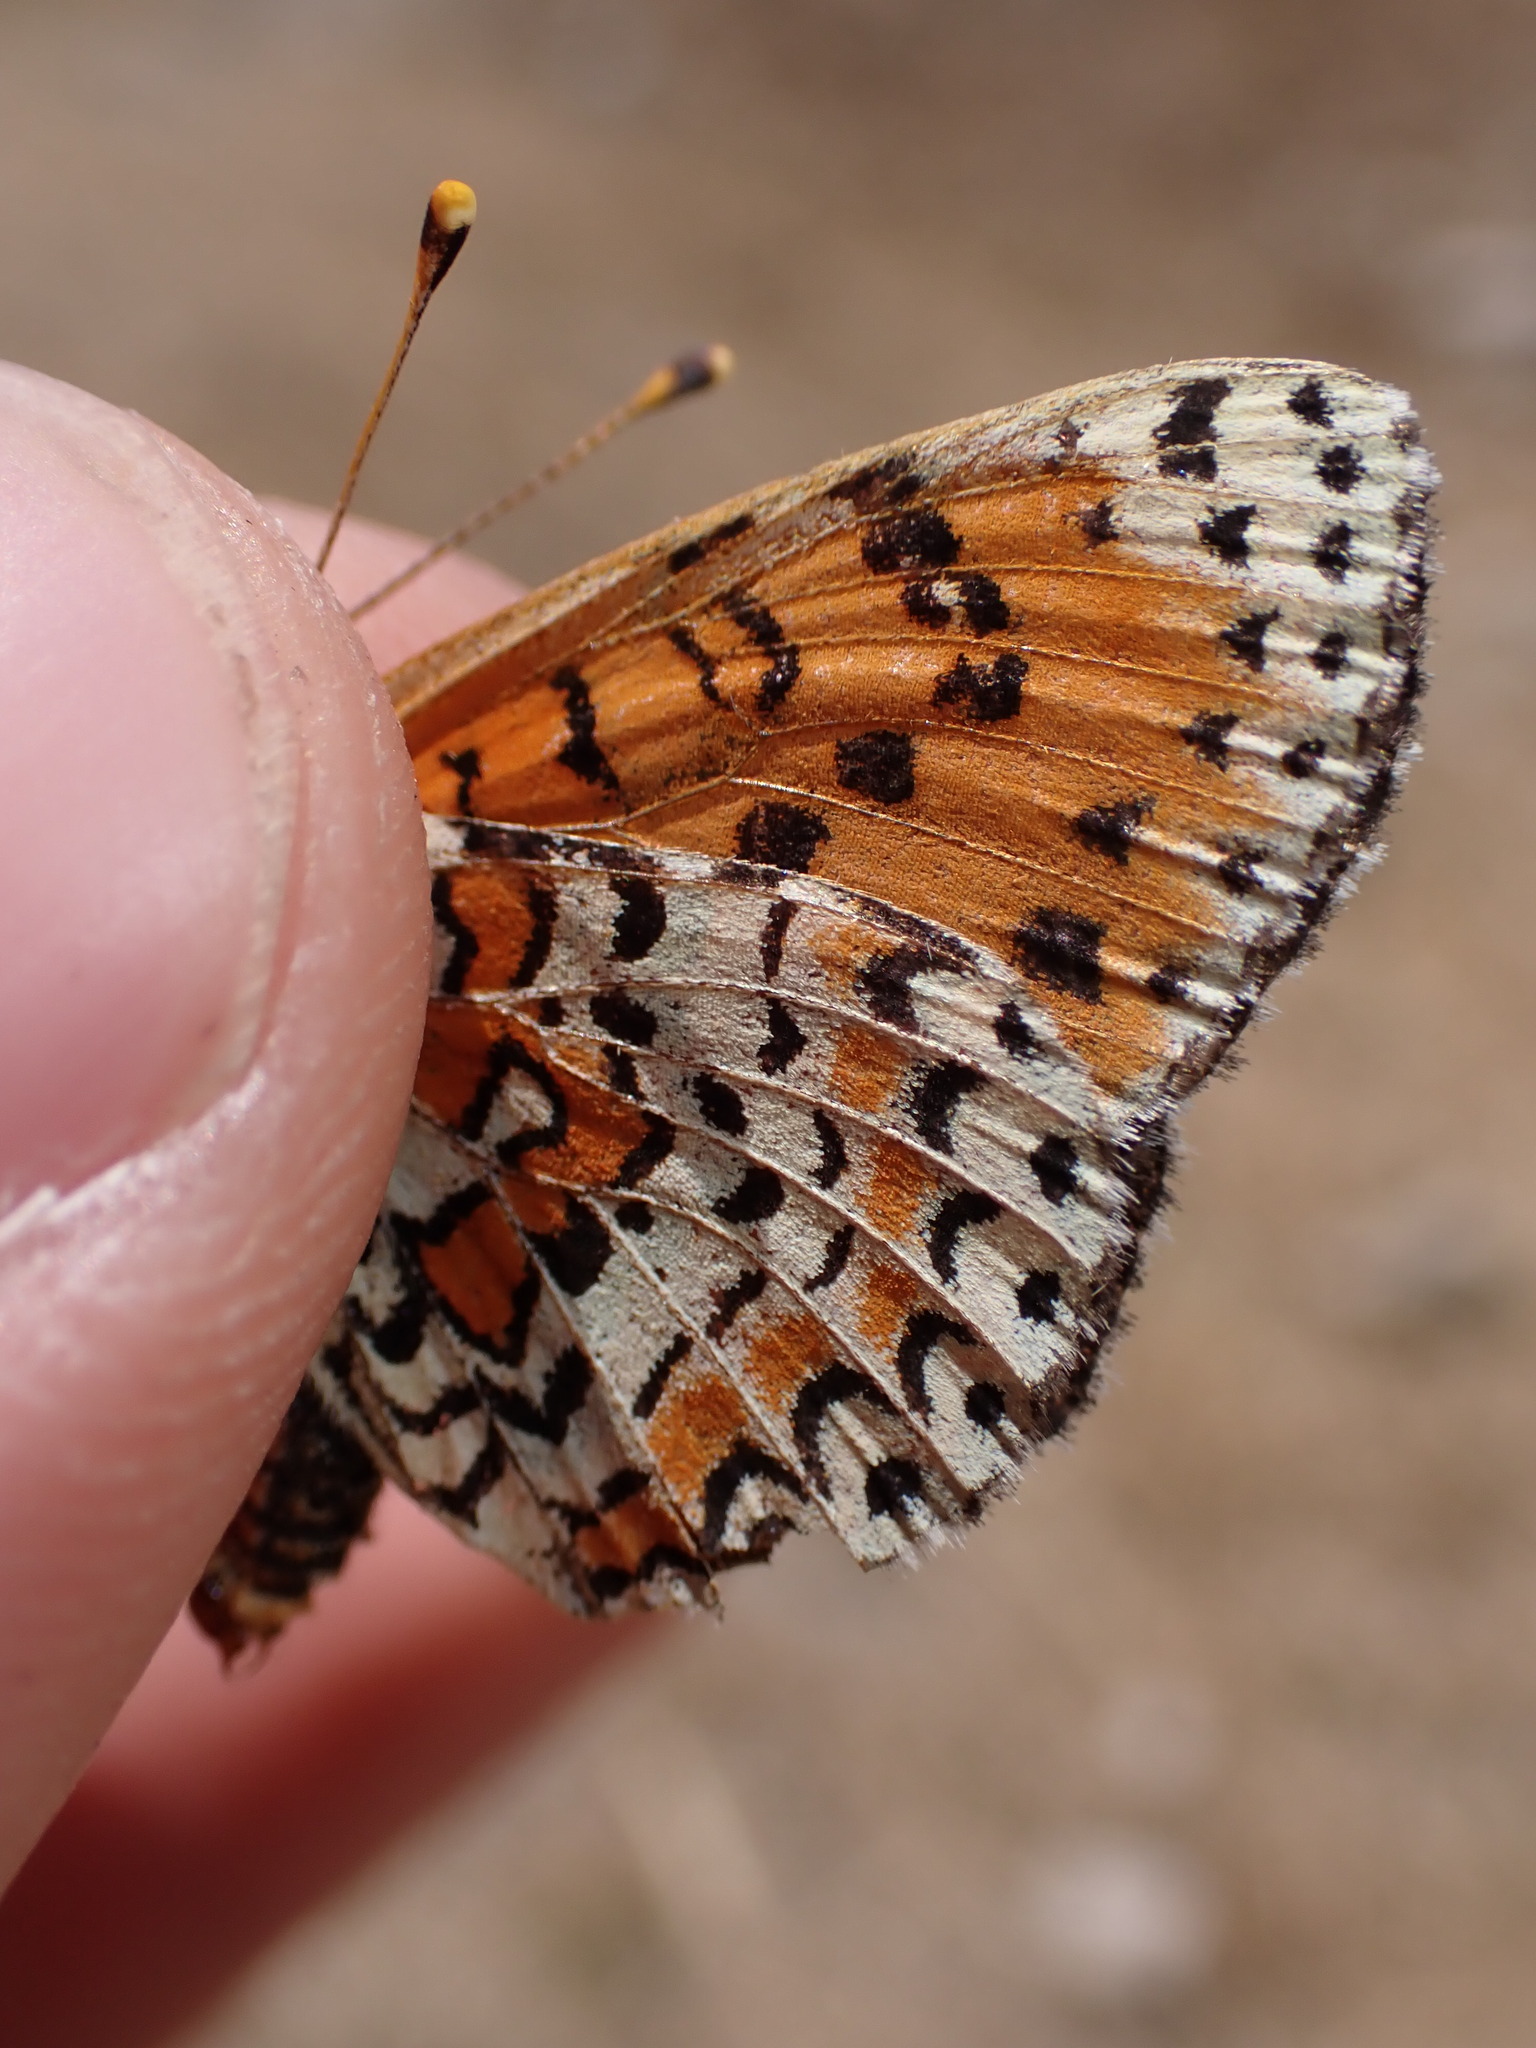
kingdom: Animalia
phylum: Arthropoda
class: Insecta
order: Lepidoptera
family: Nymphalidae
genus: Melitaea
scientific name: Melitaea didyma
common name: Spotted fritillary
